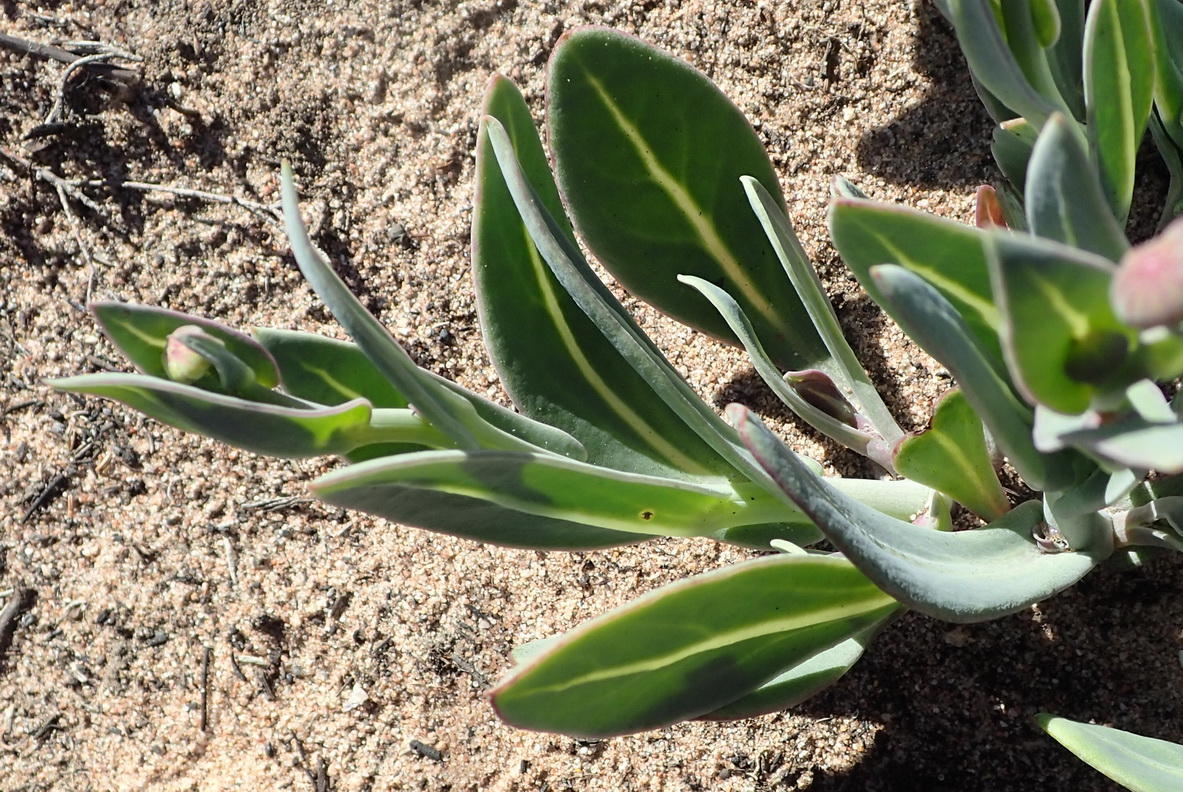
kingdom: Plantae
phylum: Tracheophyta
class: Magnoliopsida
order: Asterales
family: Asteraceae
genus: Othonna
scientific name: Othonna gymnodiscus
